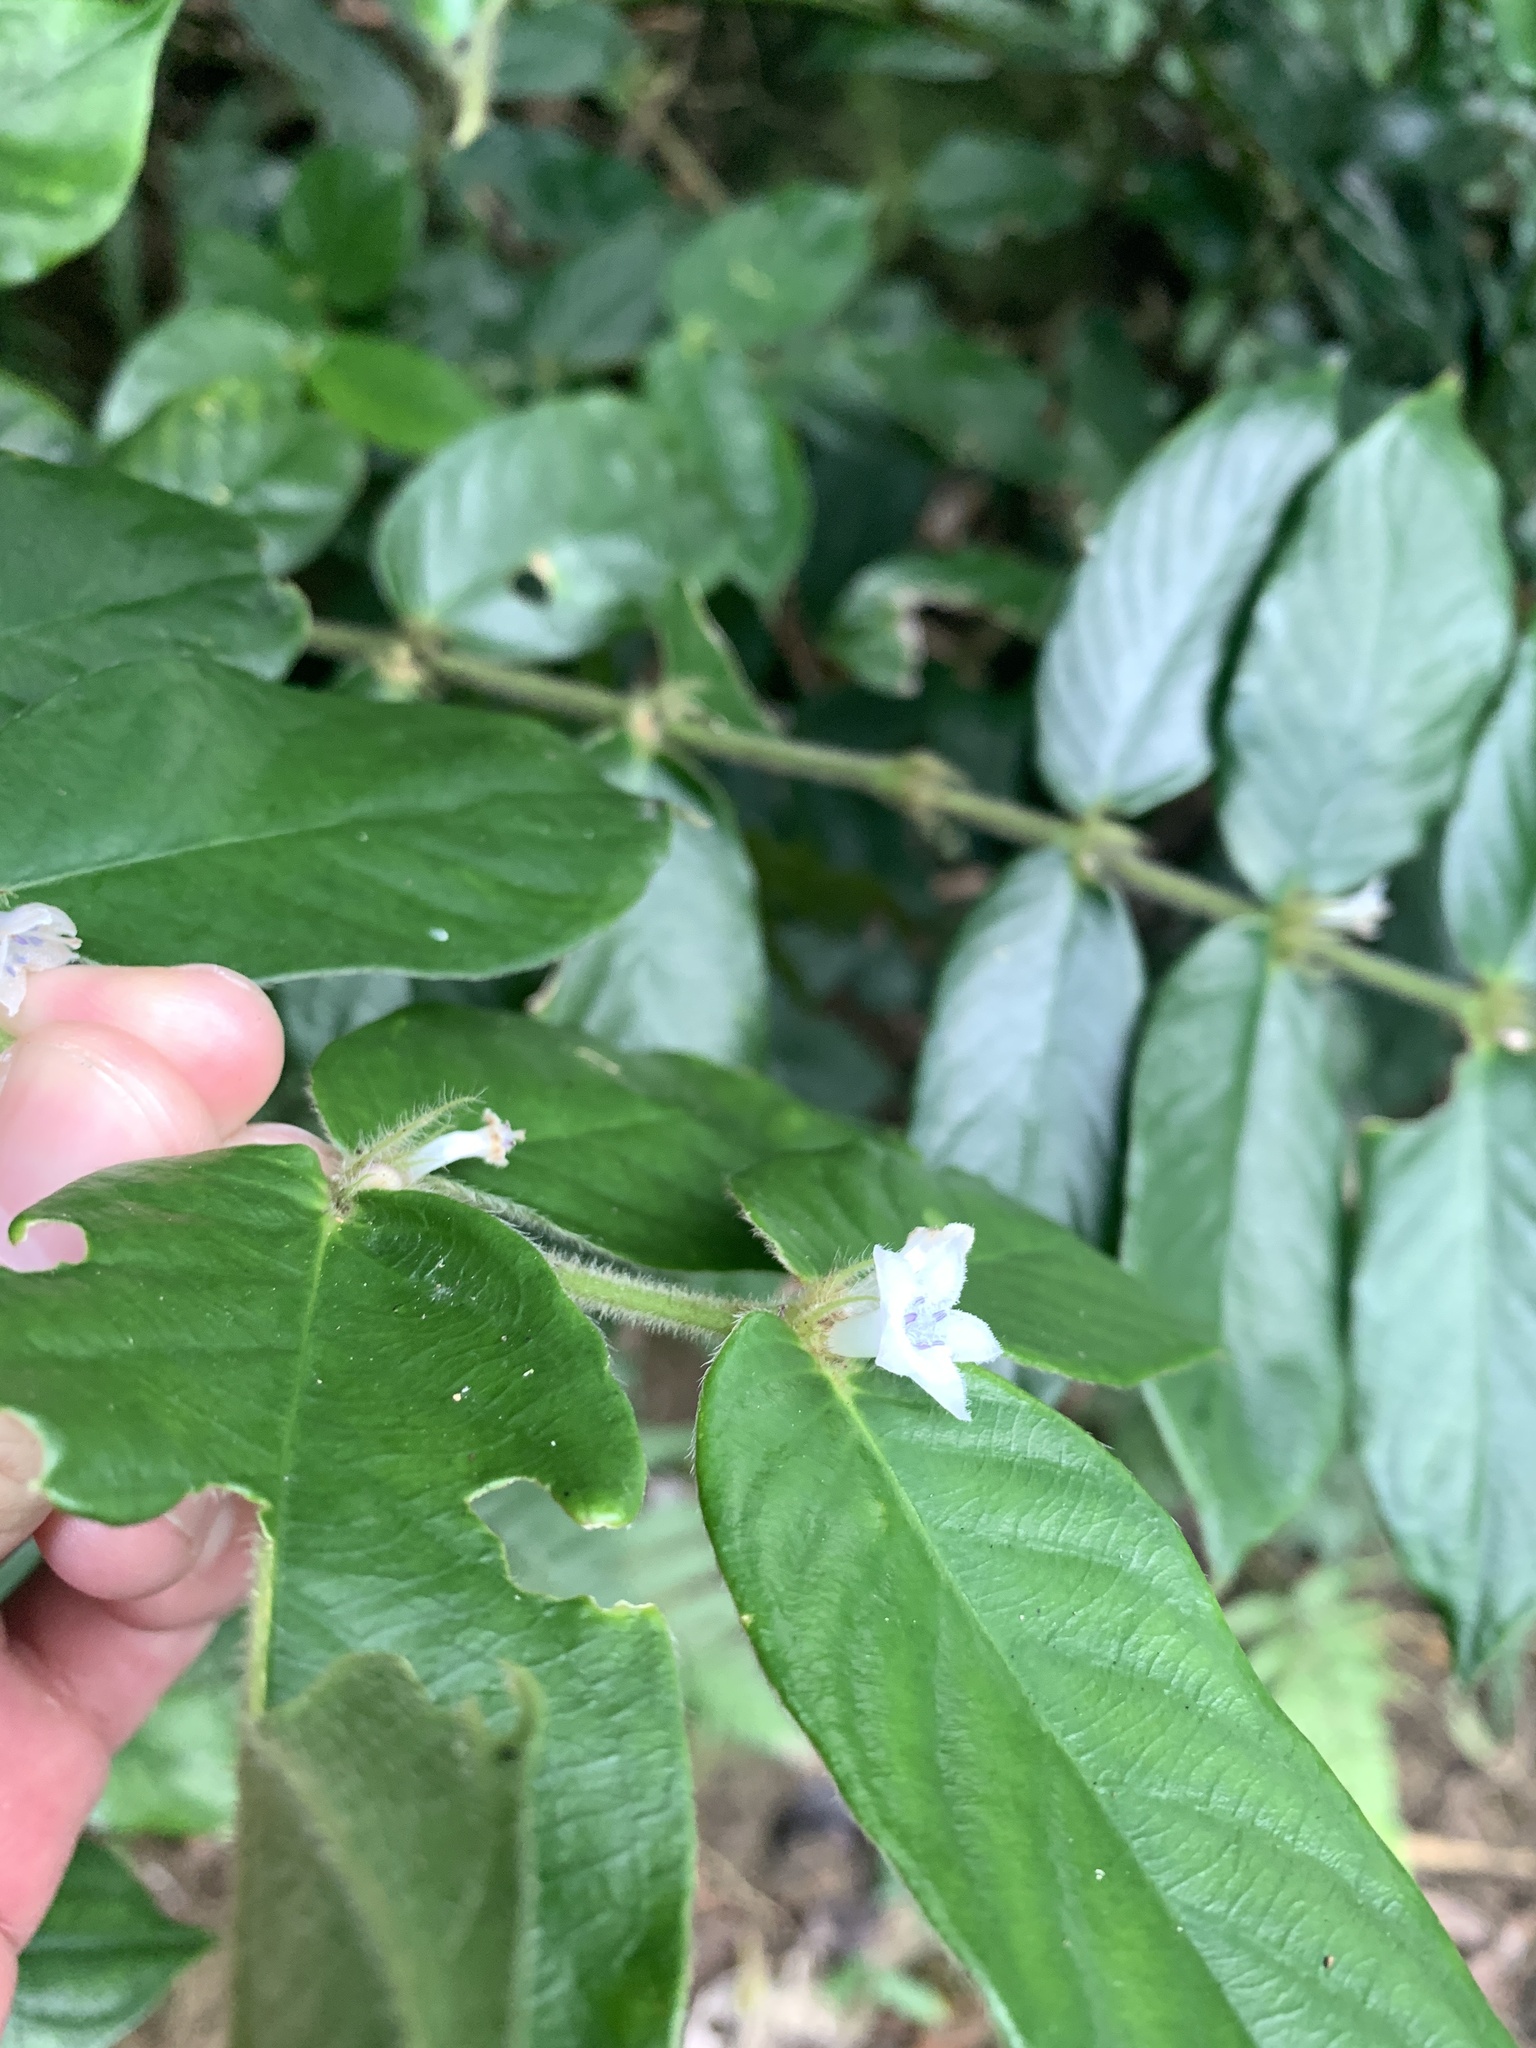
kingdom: Plantae
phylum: Tracheophyta
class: Magnoliopsida
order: Gentianales
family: Rubiaceae
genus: Lasianthus
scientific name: Lasianthus attenuatus
